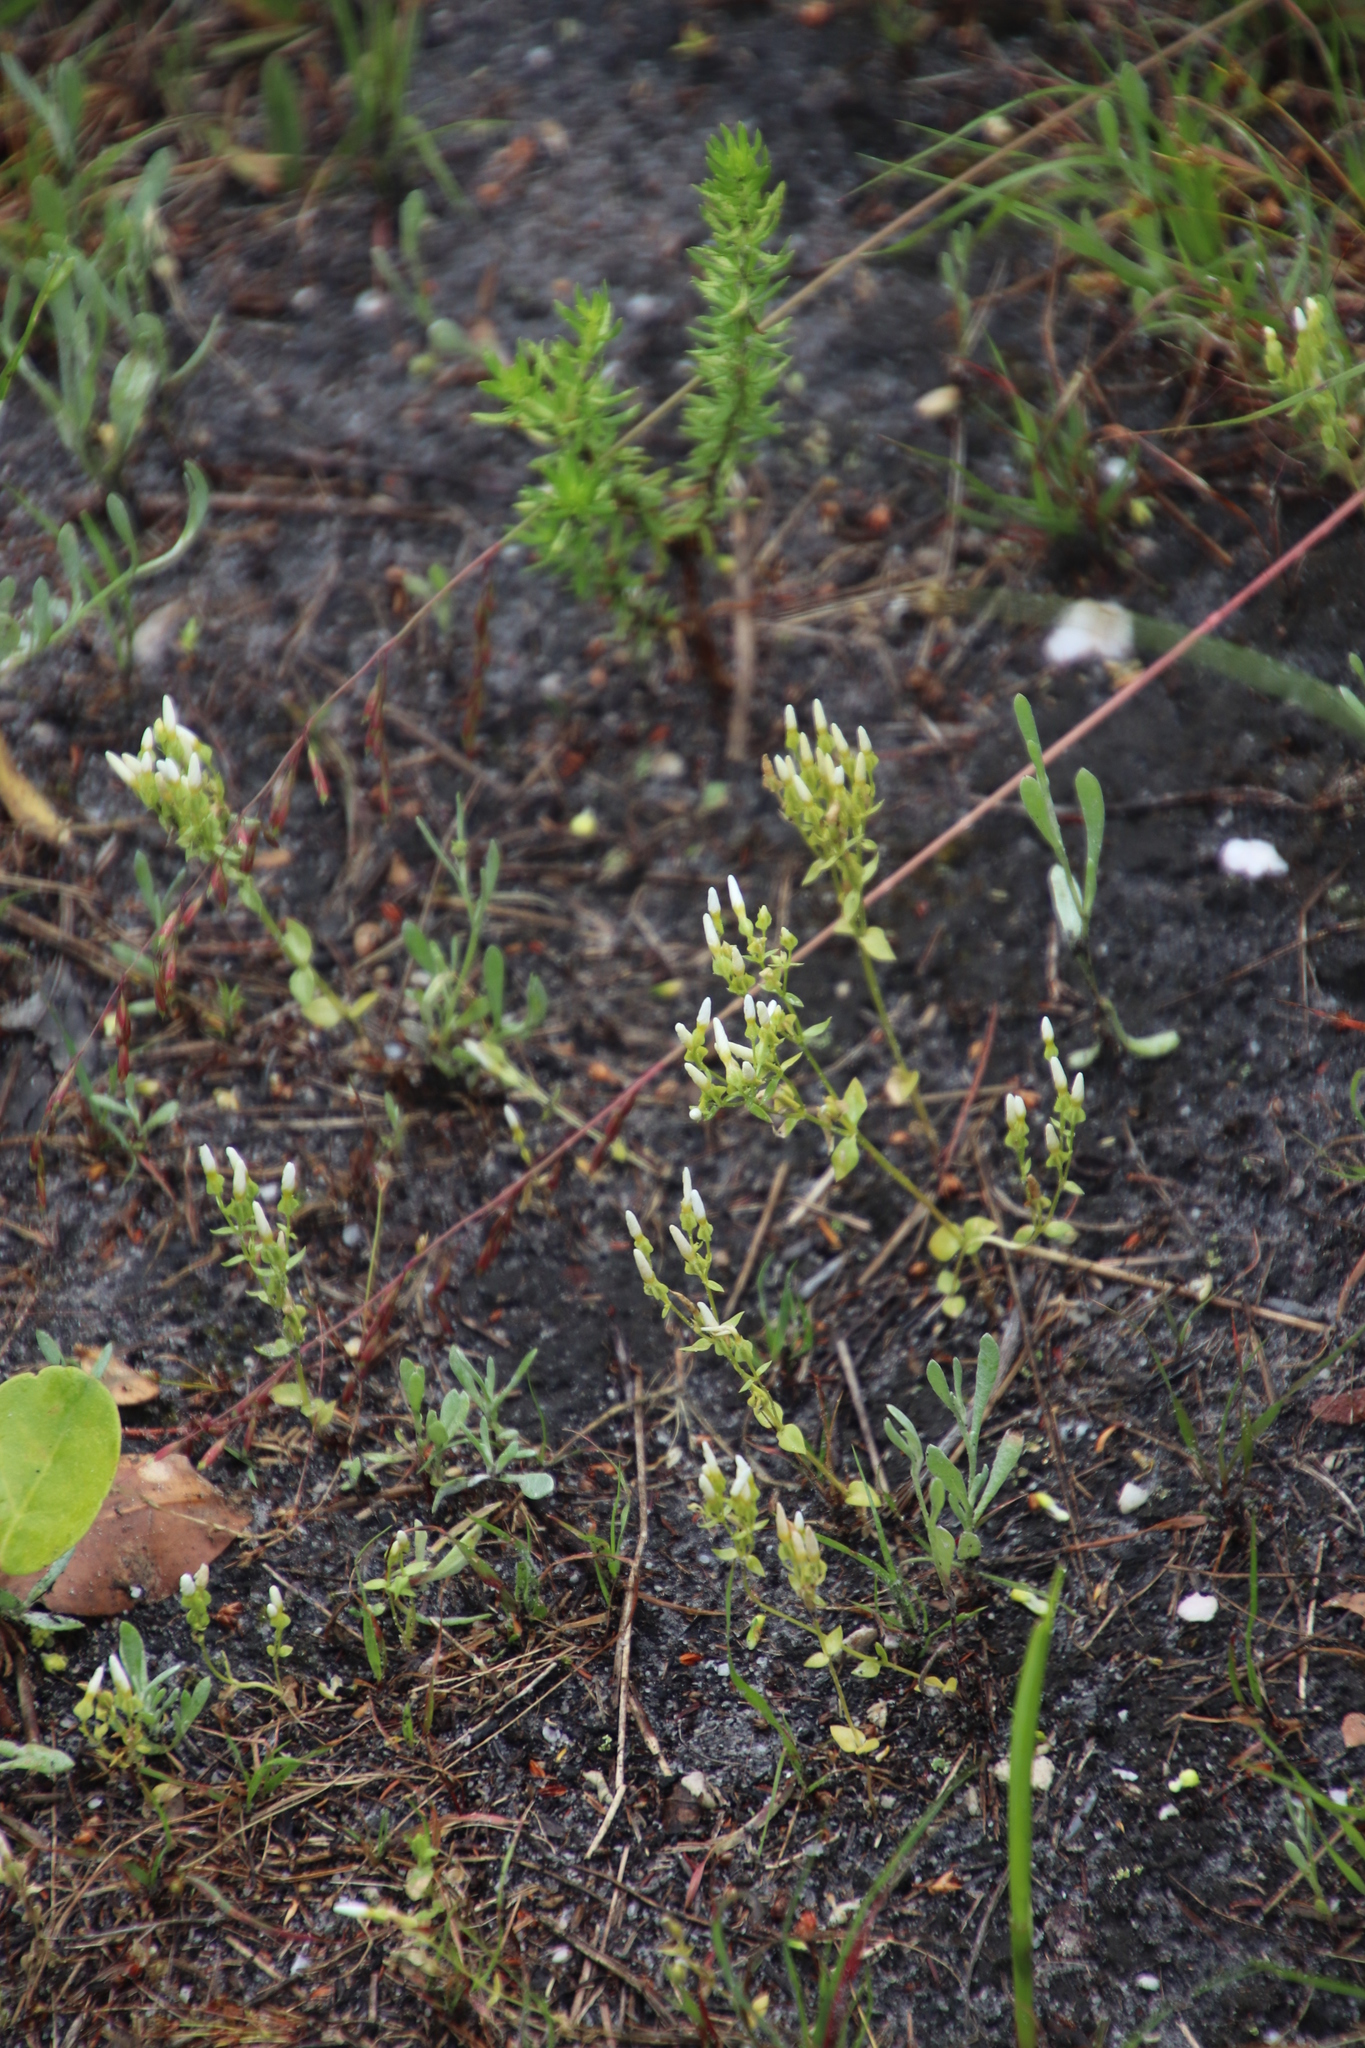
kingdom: Plantae
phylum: Tracheophyta
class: Magnoliopsida
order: Gentianales
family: Gentianaceae
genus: Sebaea
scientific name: Sebaea aurea
